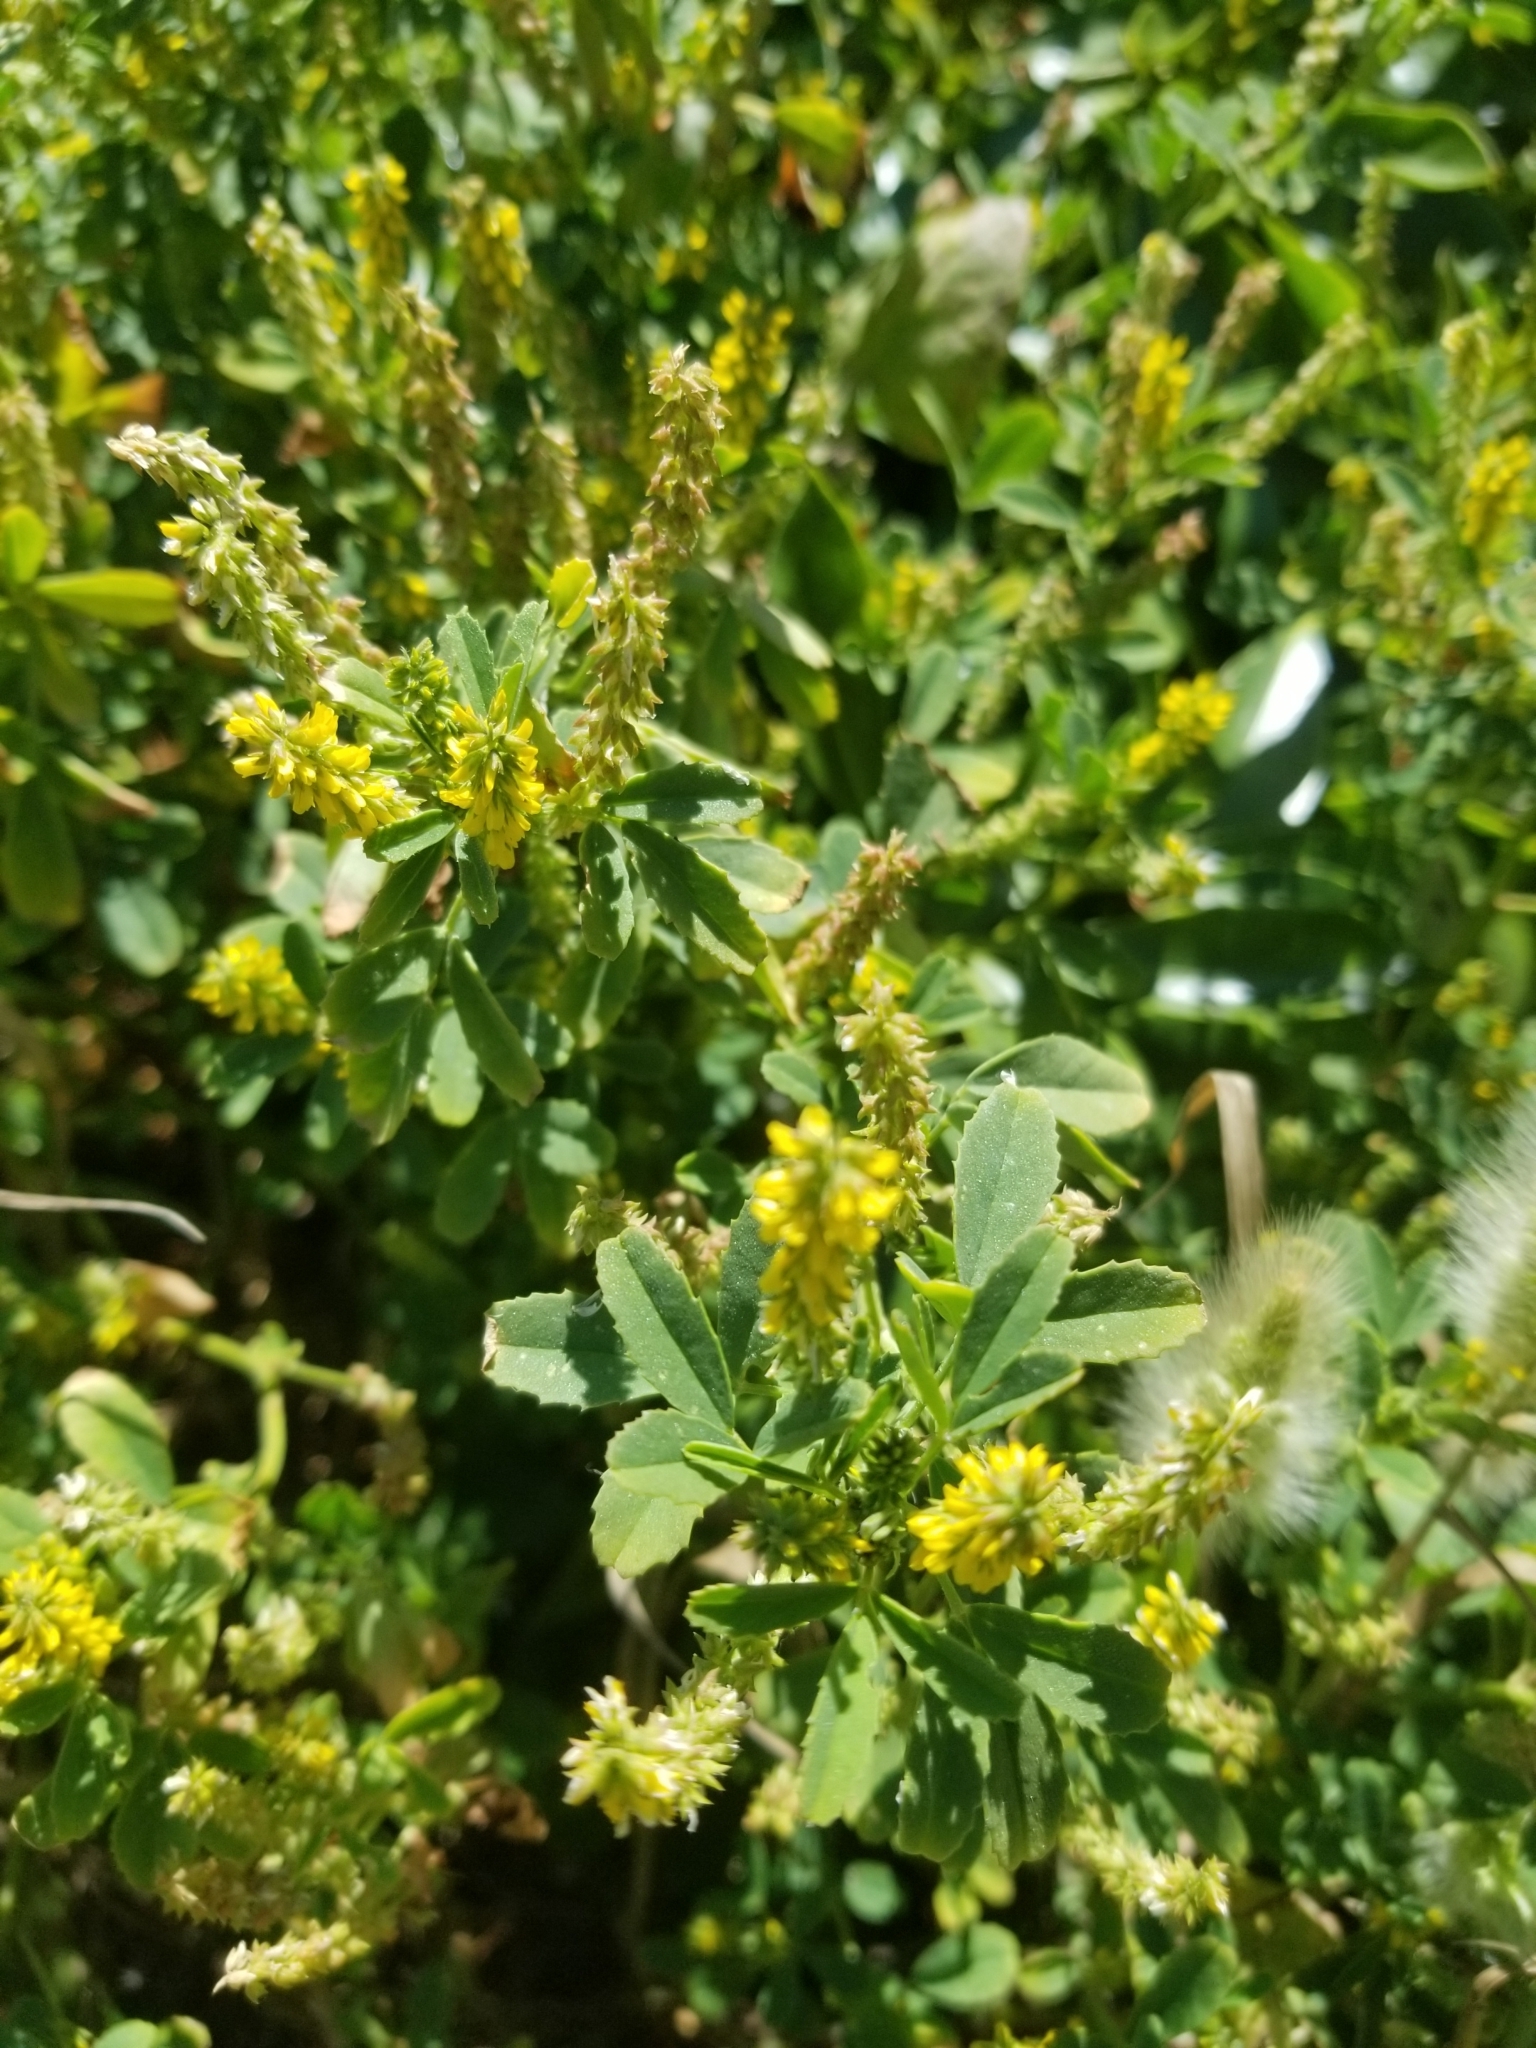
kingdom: Plantae
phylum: Tracheophyta
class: Magnoliopsida
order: Fabales
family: Fabaceae
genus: Melilotus
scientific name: Melilotus indicus
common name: Small melilot
